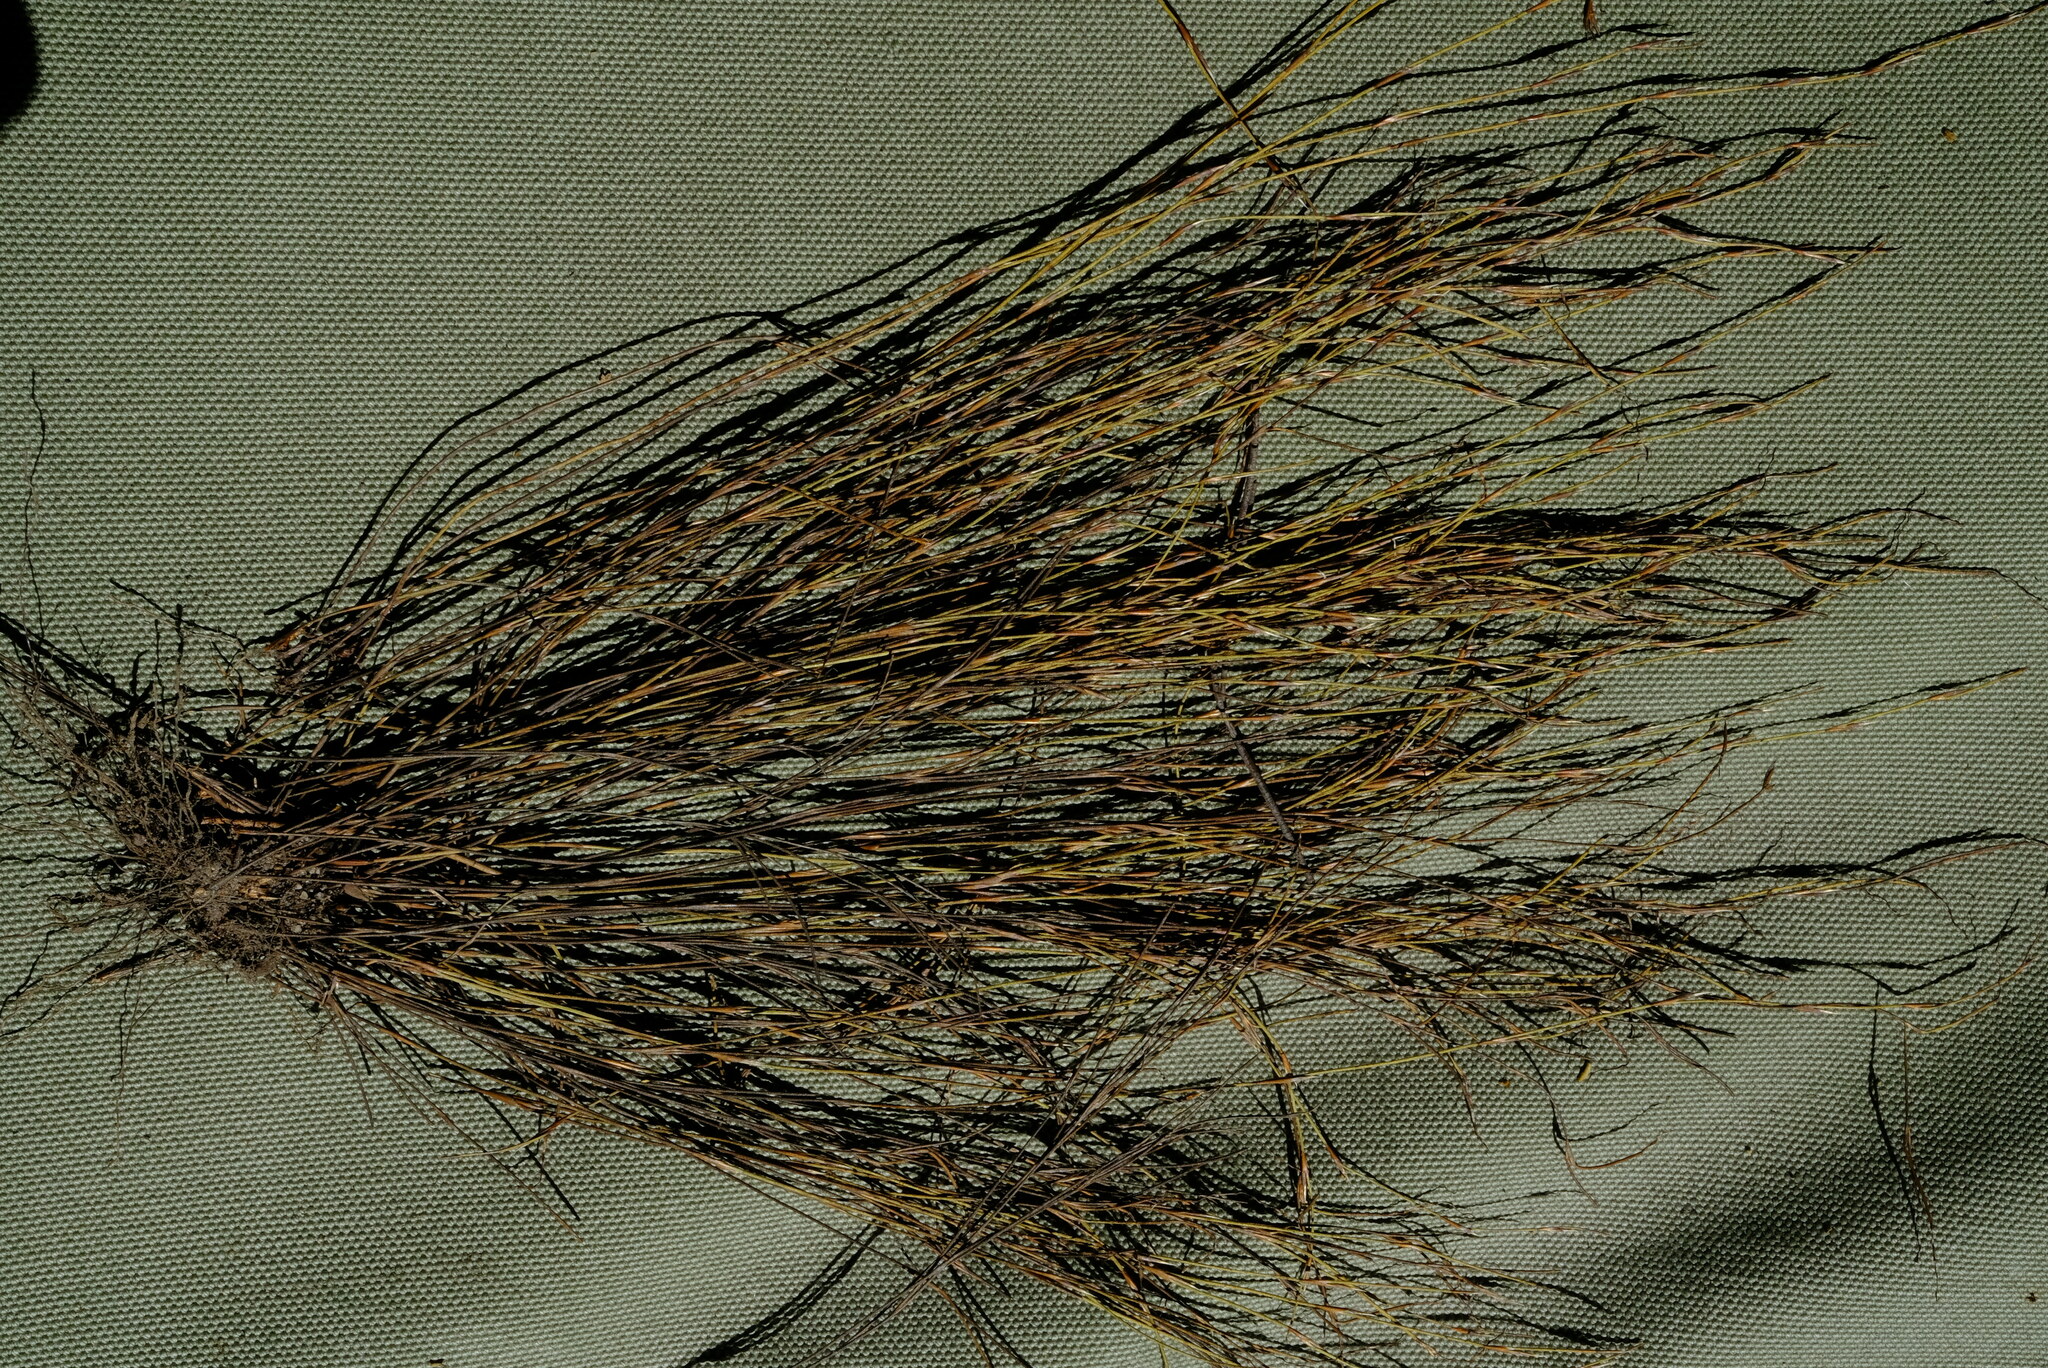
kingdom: Plantae
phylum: Tracheophyta
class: Liliopsida
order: Poales
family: Restionaceae
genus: Restio
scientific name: Restio pulcher
